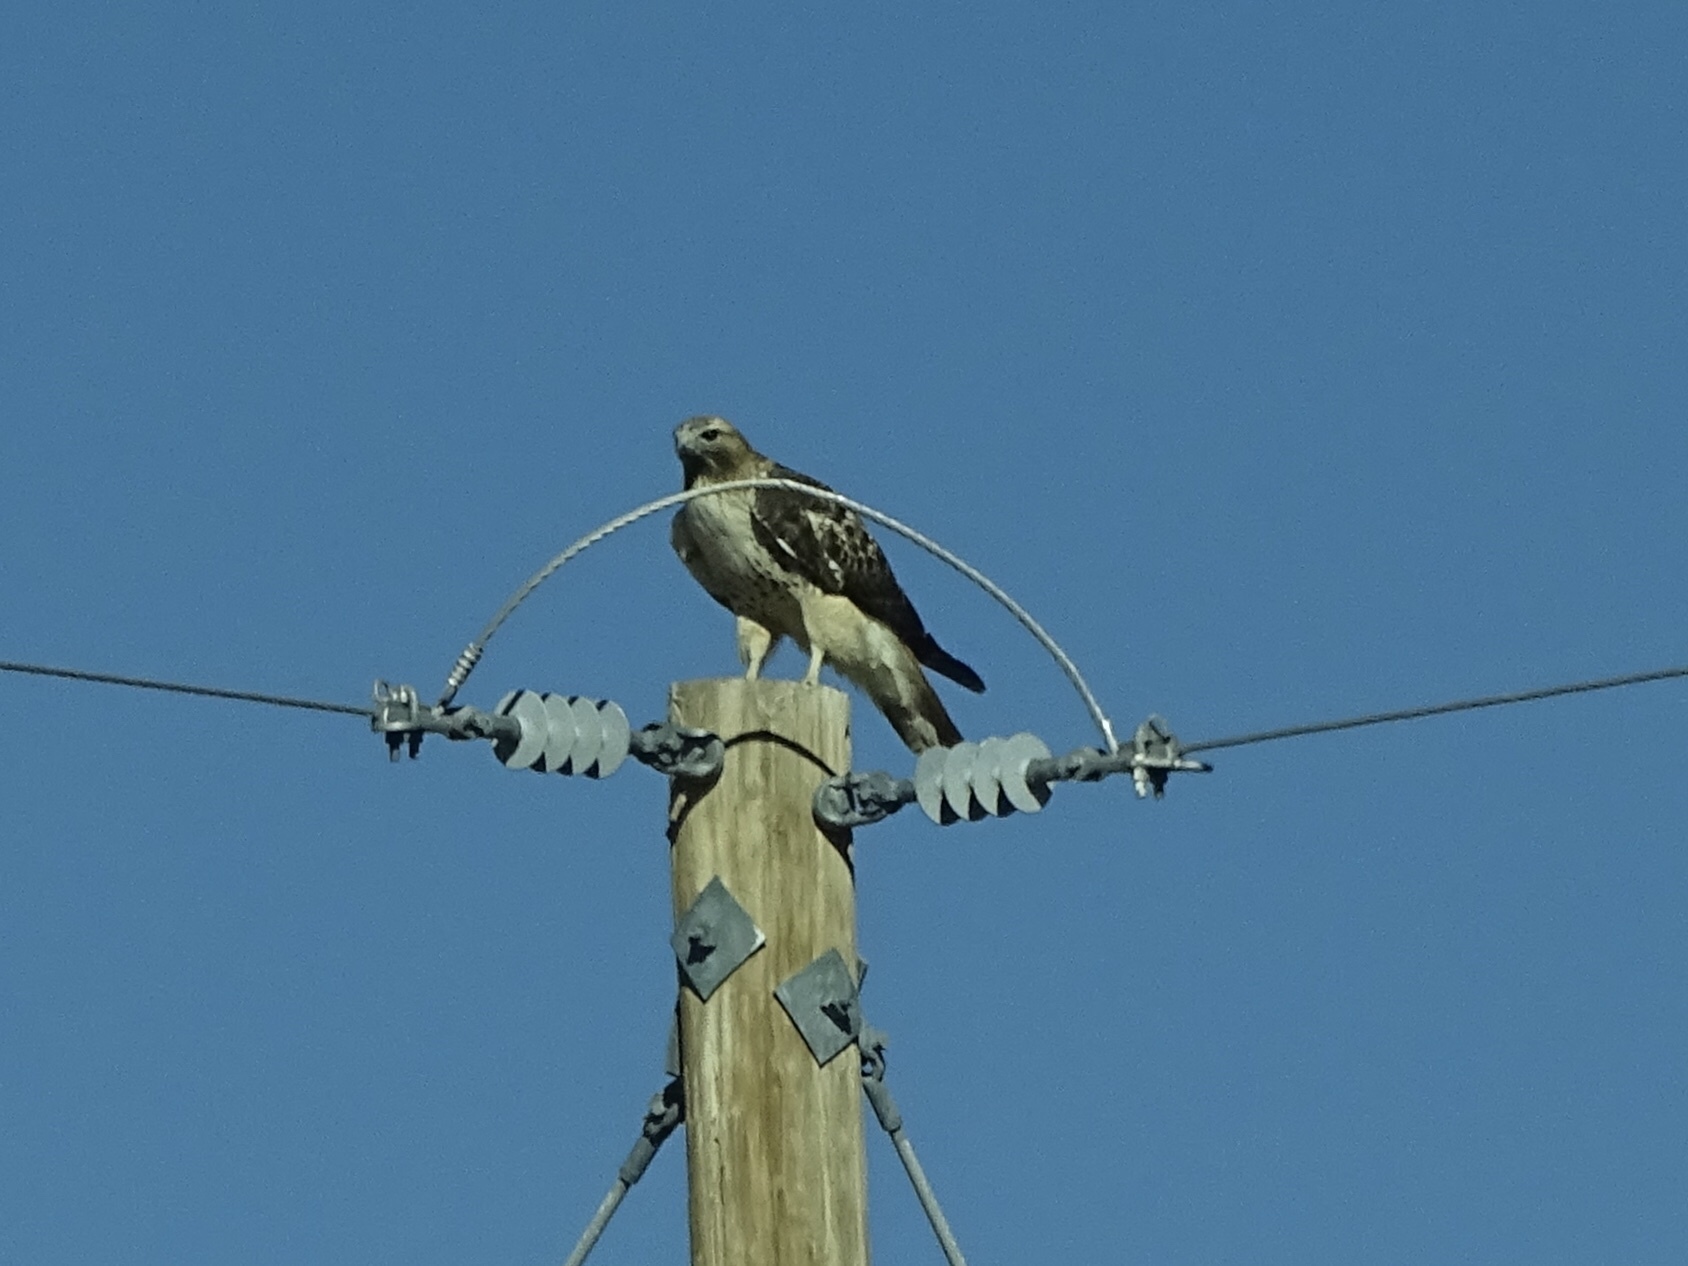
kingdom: Animalia
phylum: Chordata
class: Aves
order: Accipitriformes
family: Accipitridae
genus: Buteo
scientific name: Buteo jamaicensis
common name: Red-tailed hawk
